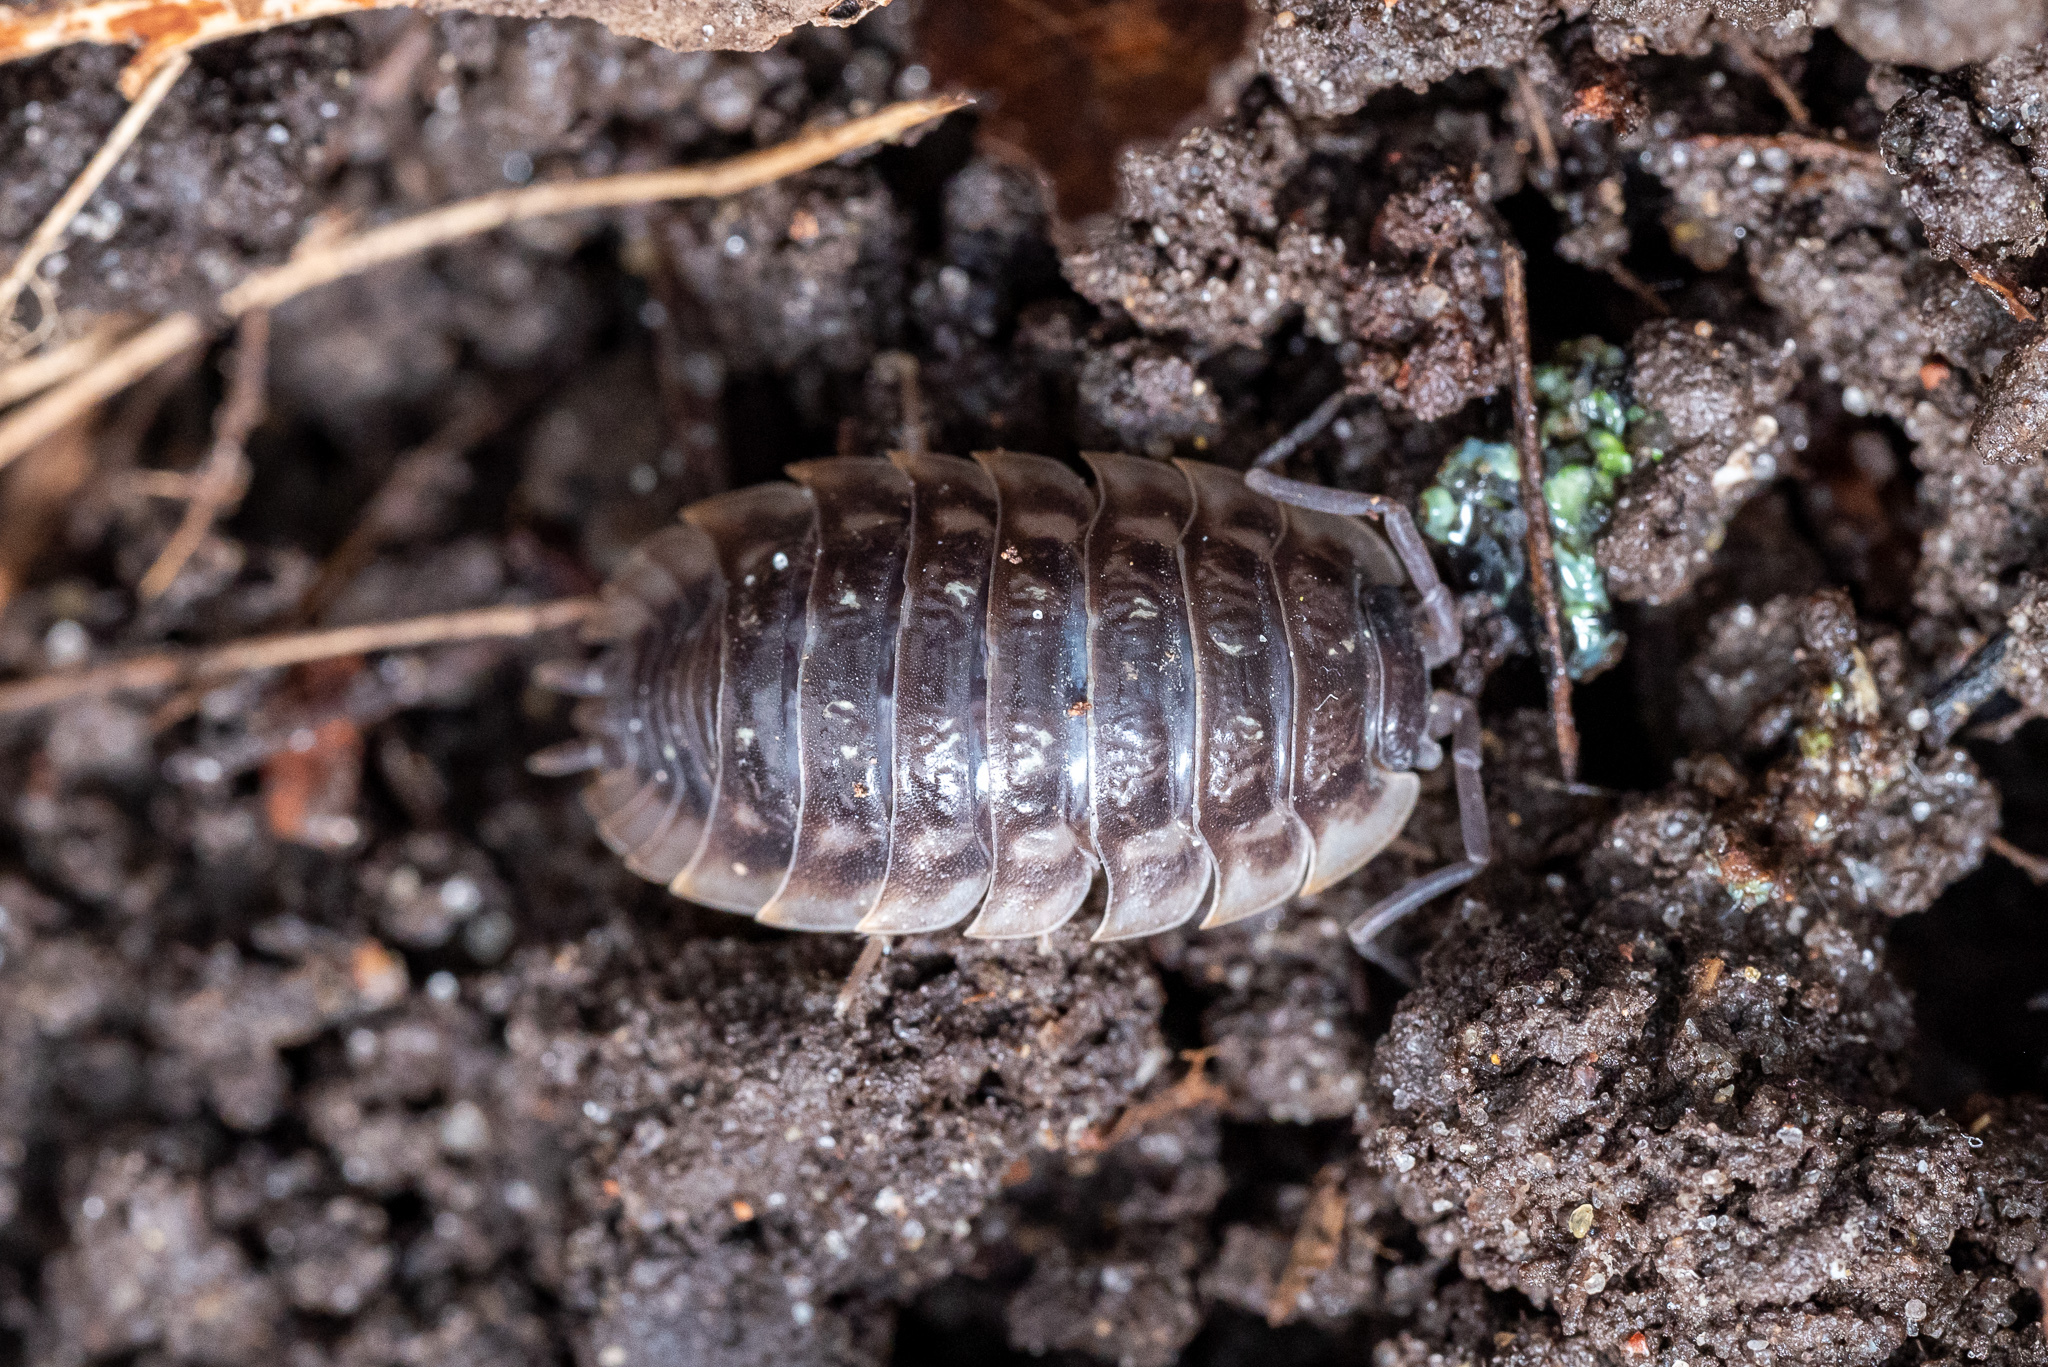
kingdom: Animalia
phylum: Arthropoda
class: Malacostraca
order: Isopoda
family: Oniscidae
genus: Oniscus
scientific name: Oniscus asellus
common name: Common shiny woodlouse
